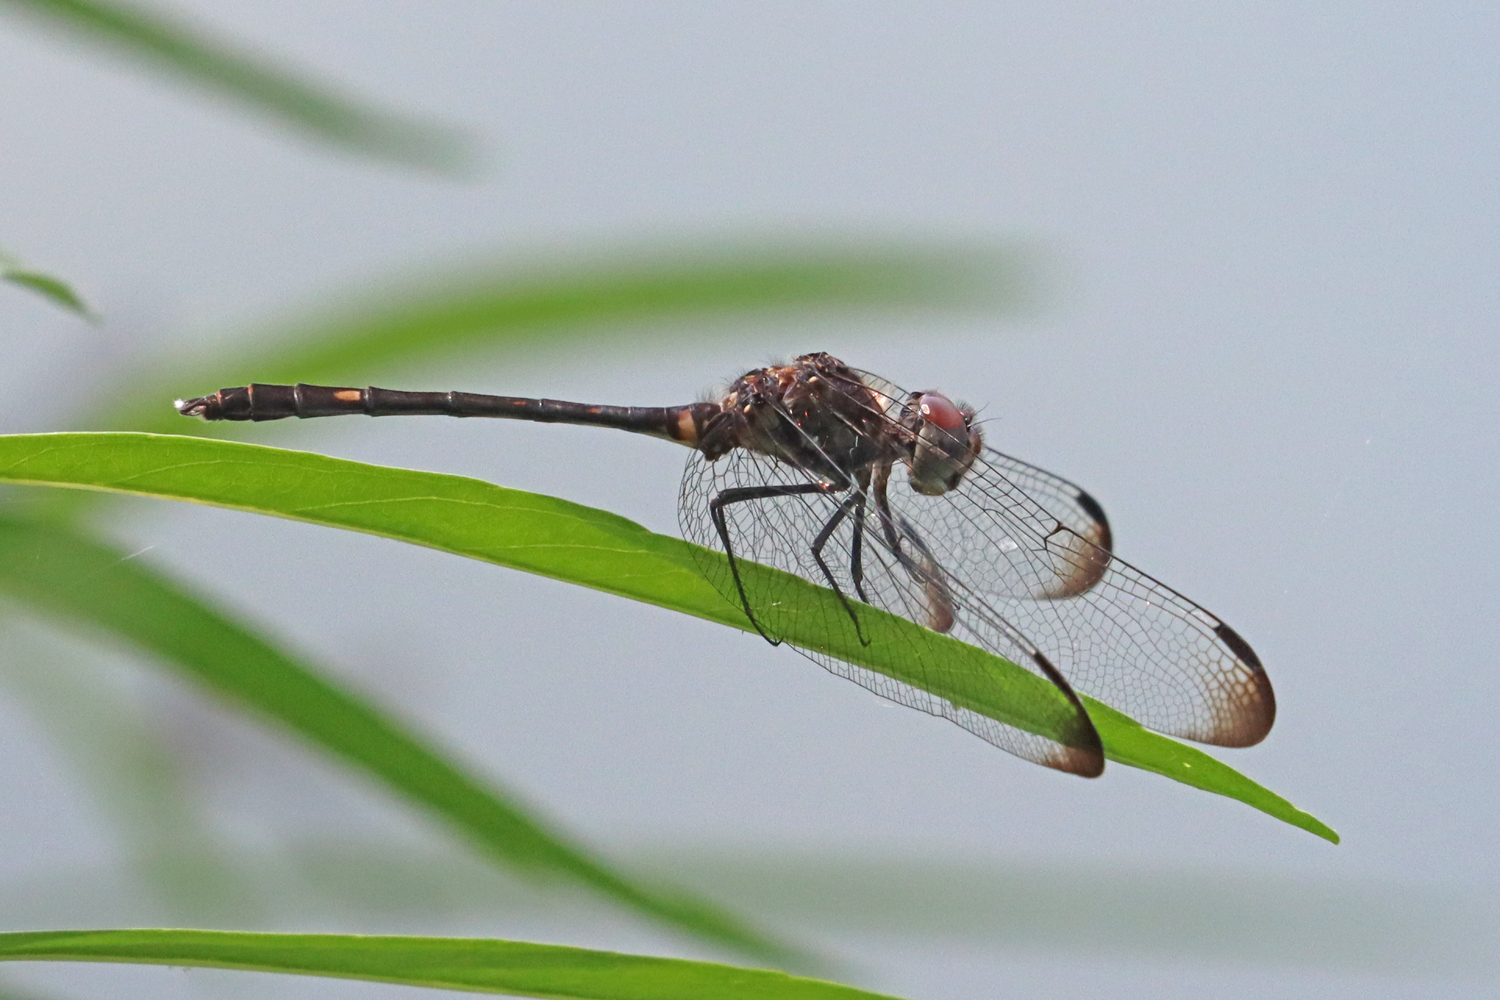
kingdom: Animalia
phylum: Arthropoda
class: Insecta
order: Odonata
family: Libellulidae
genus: Dythemis
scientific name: Dythemis velox
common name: Swift setwing
